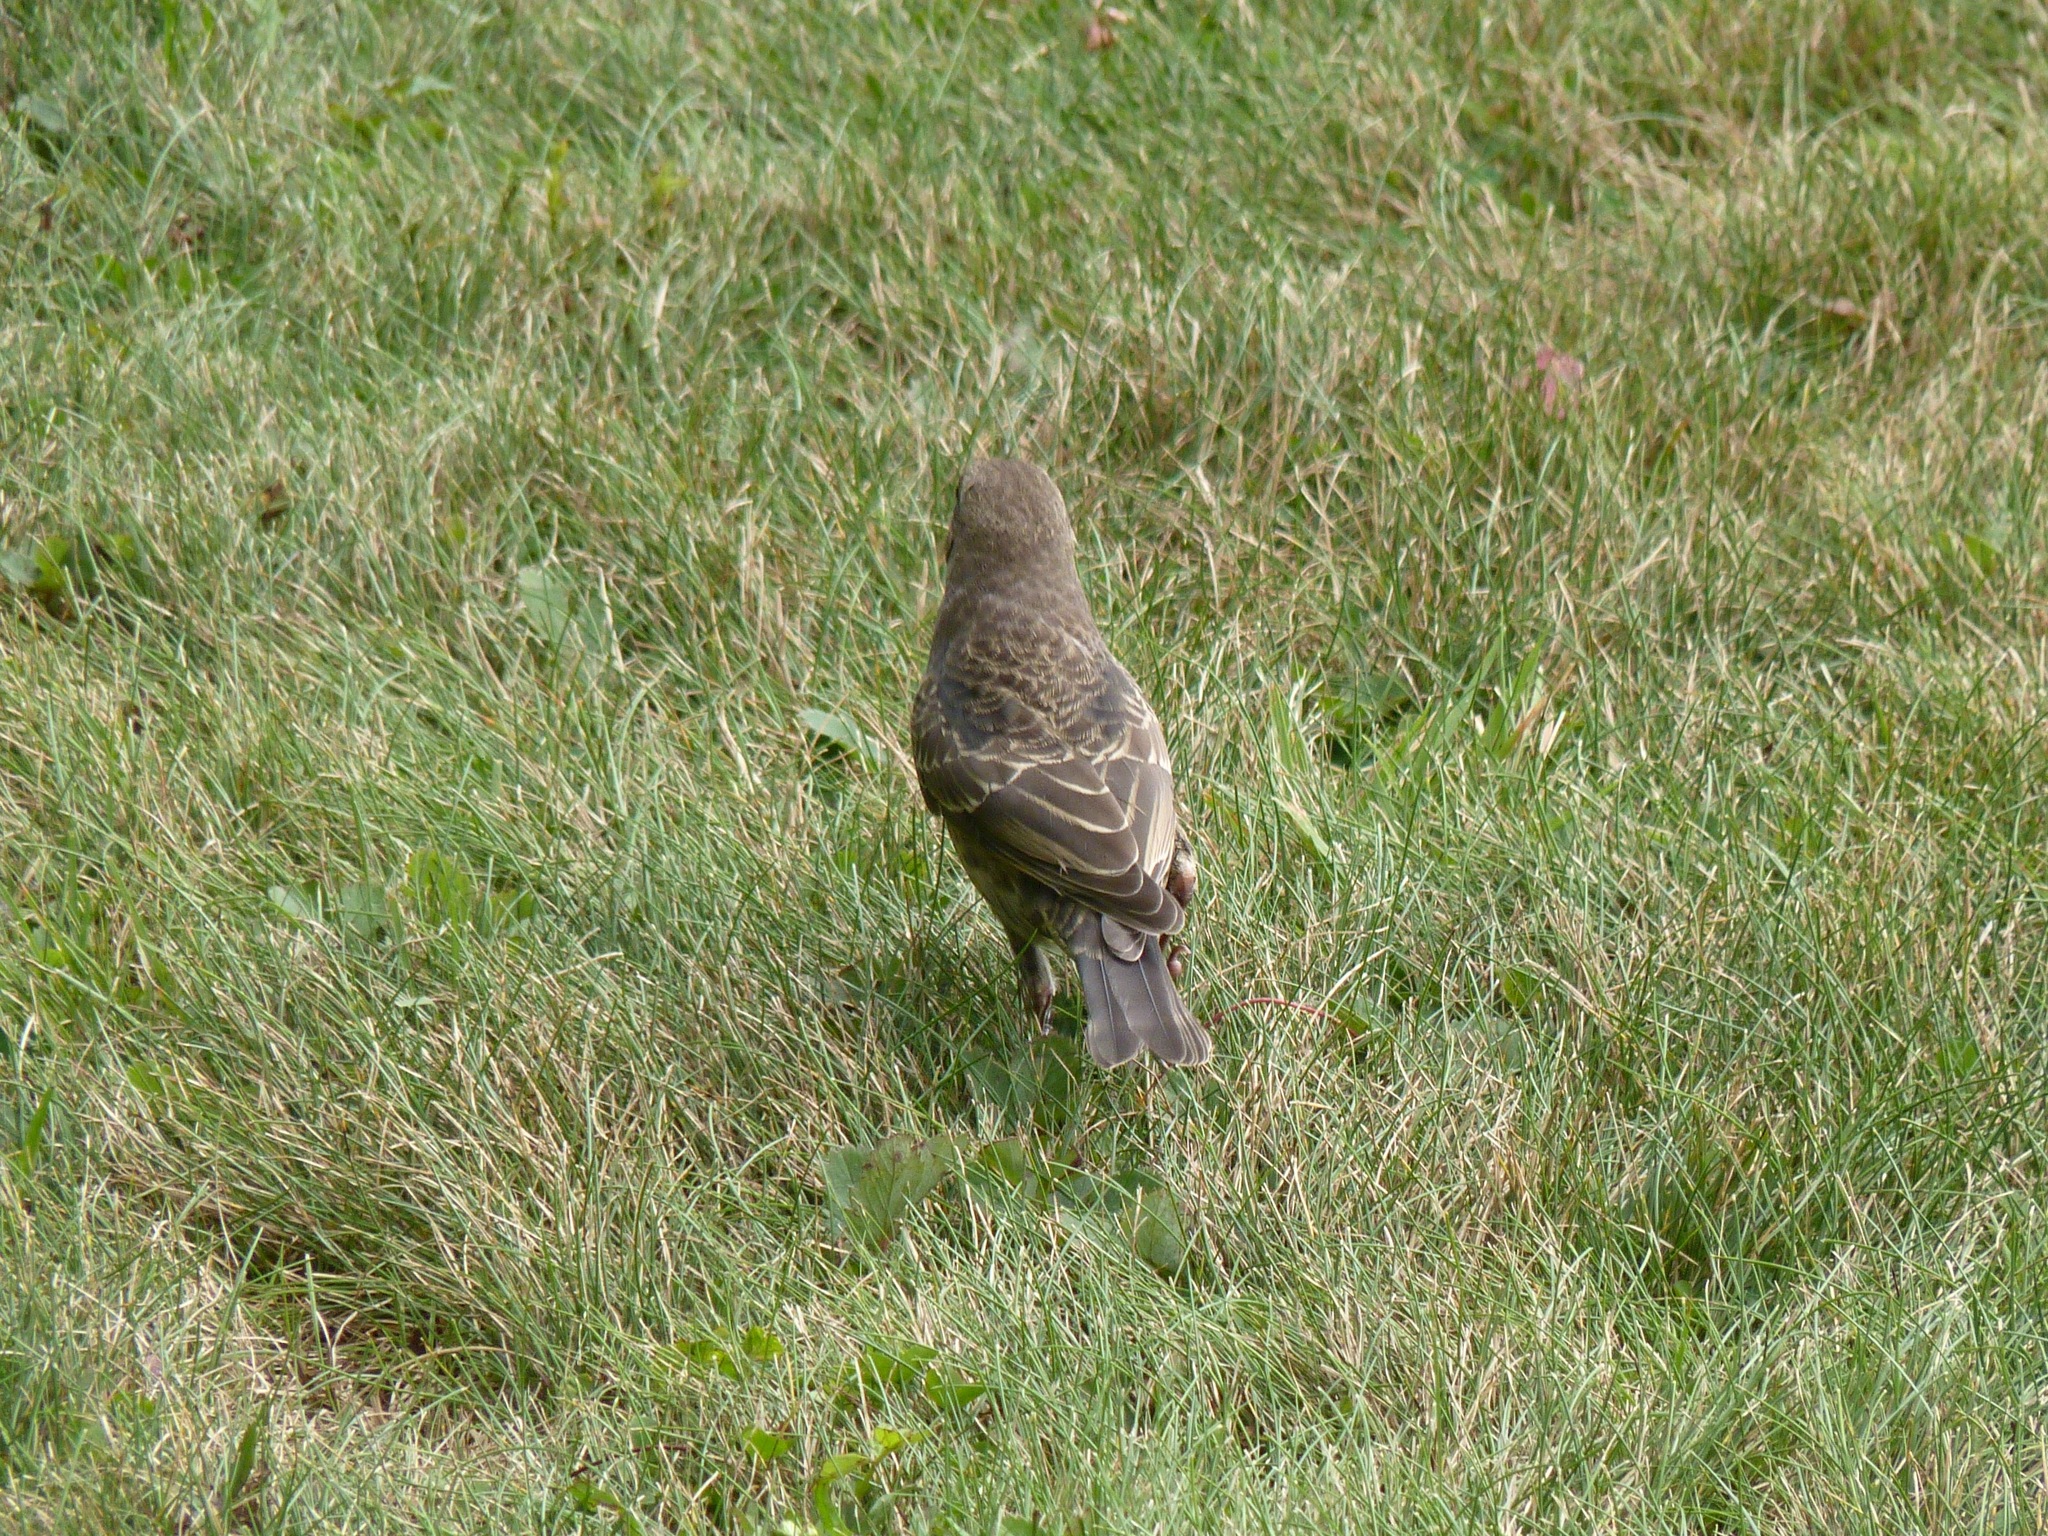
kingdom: Animalia
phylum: Chordata
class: Aves
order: Passeriformes
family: Icteridae
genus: Molothrus
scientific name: Molothrus ater
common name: Brown-headed cowbird
